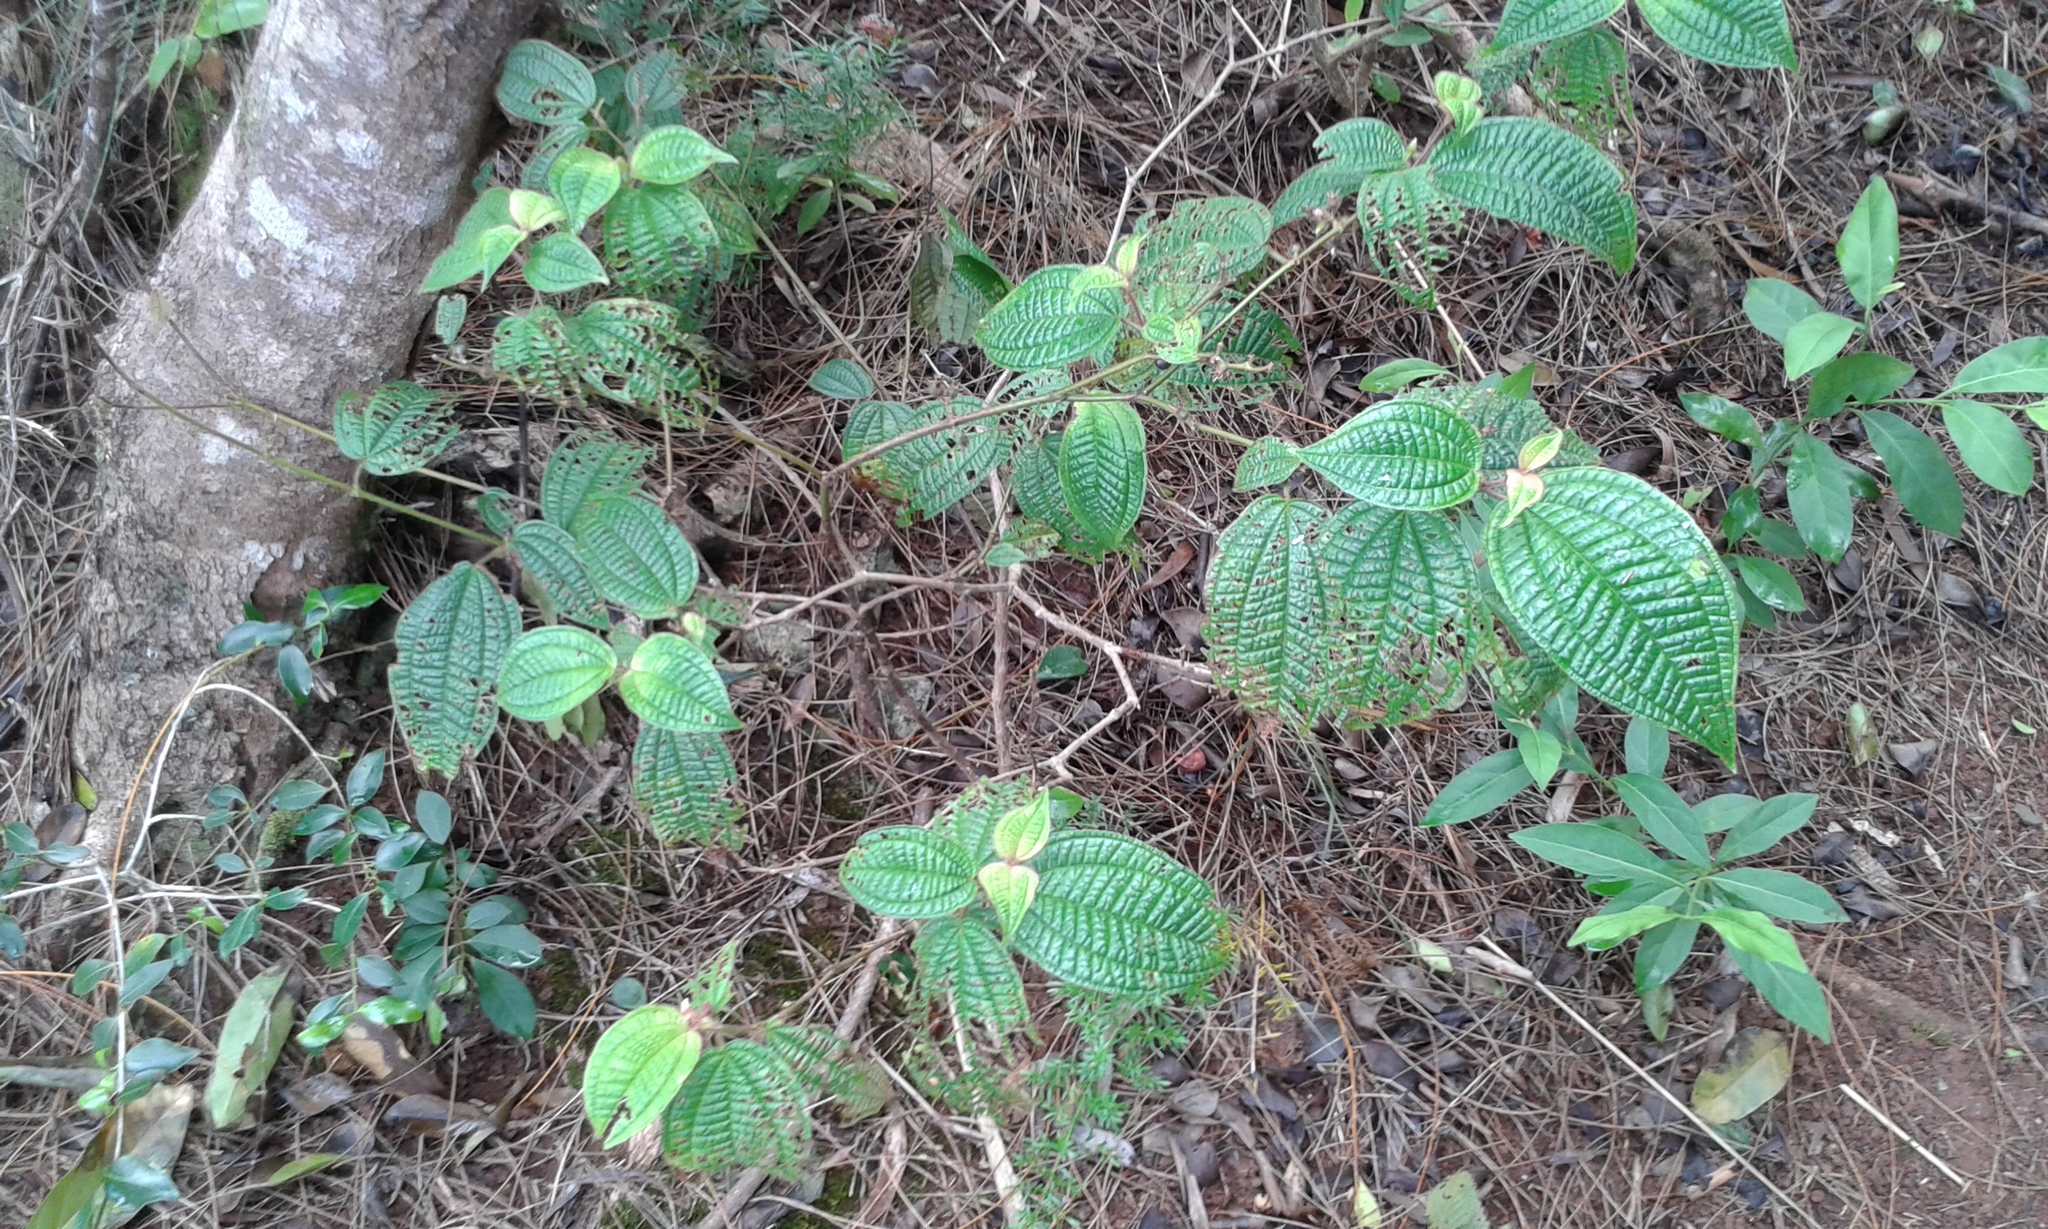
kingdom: Plantae
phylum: Tracheophyta
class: Magnoliopsida
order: Myrtales
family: Melastomataceae
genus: Miconia
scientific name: Miconia crenata
